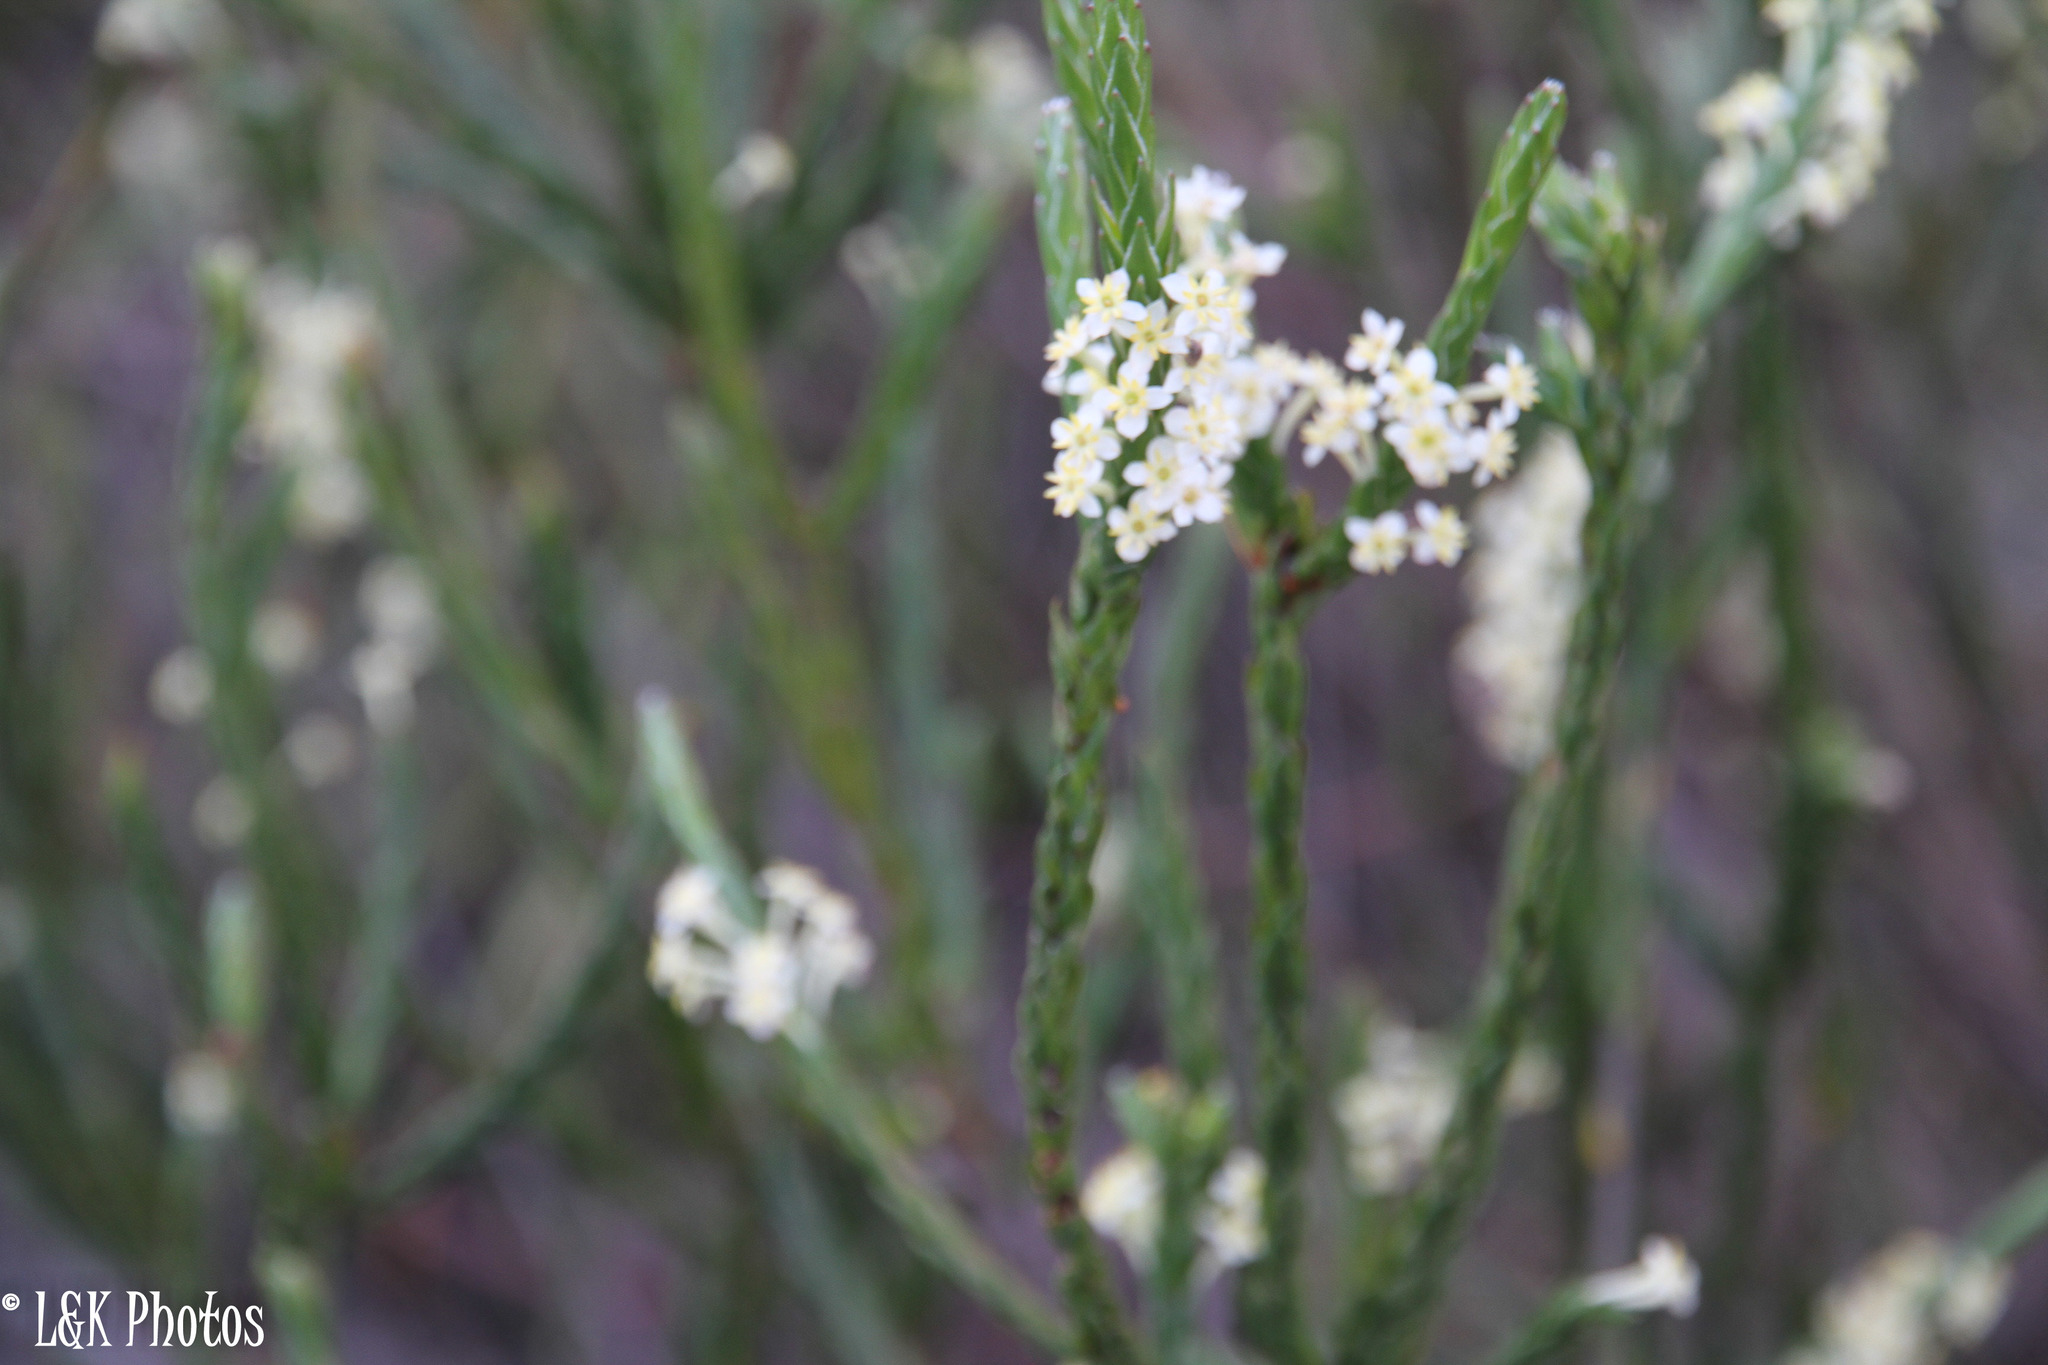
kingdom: Plantae
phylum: Tracheophyta
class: Magnoliopsida
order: Malvales
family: Thymelaeaceae
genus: Struthiola
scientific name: Struthiola ciliata
